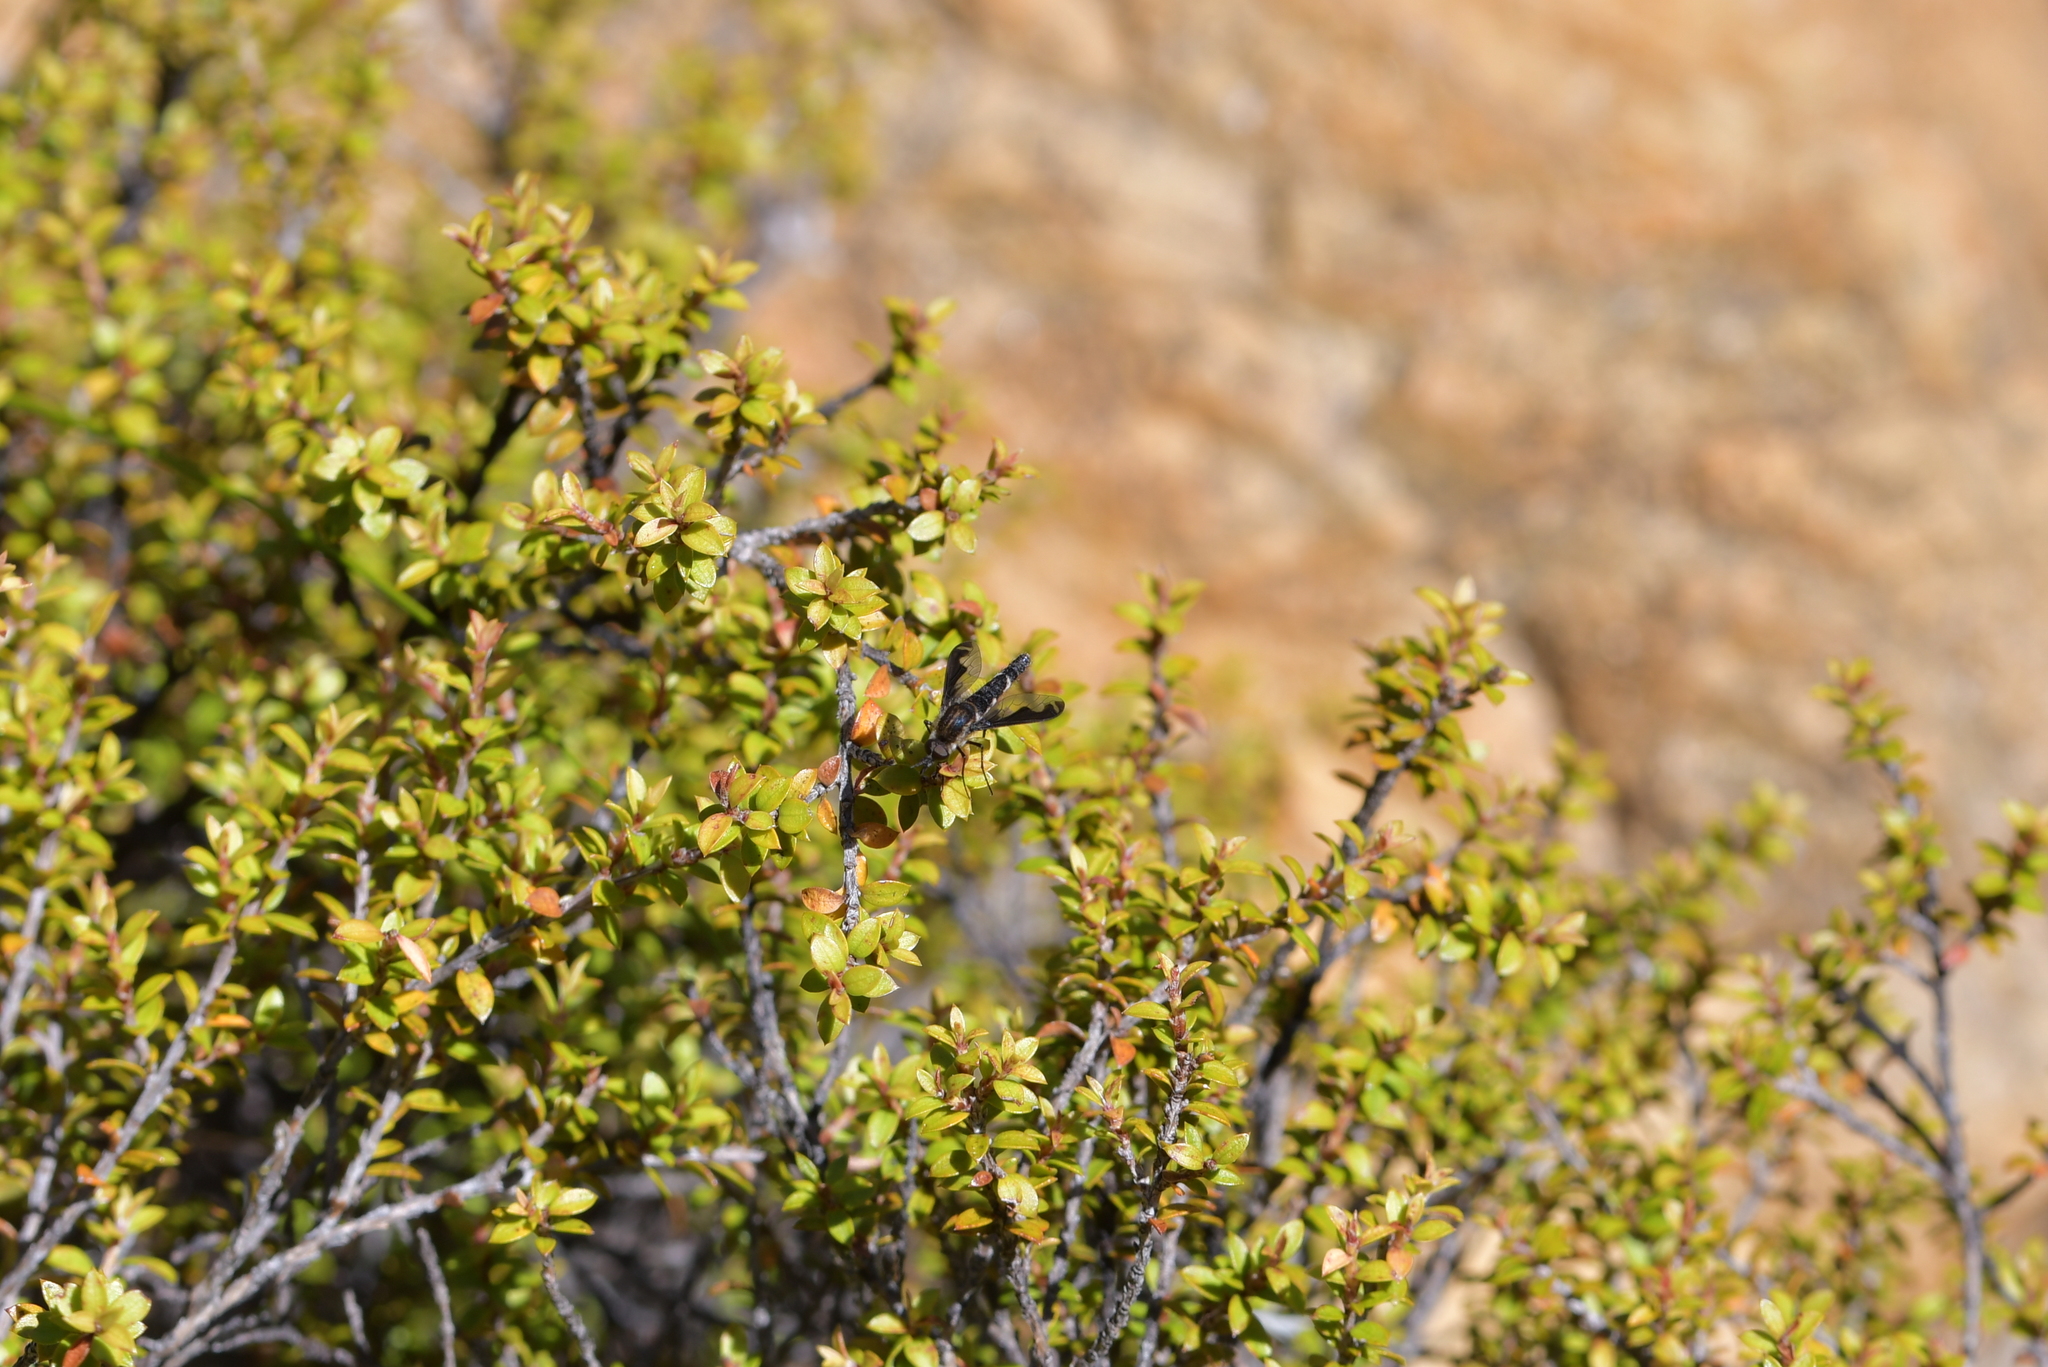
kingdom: Animalia
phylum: Arthropoda
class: Insecta
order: Diptera
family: Bombyliidae
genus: Tillyardomyia
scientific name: Tillyardomyia gracilis
